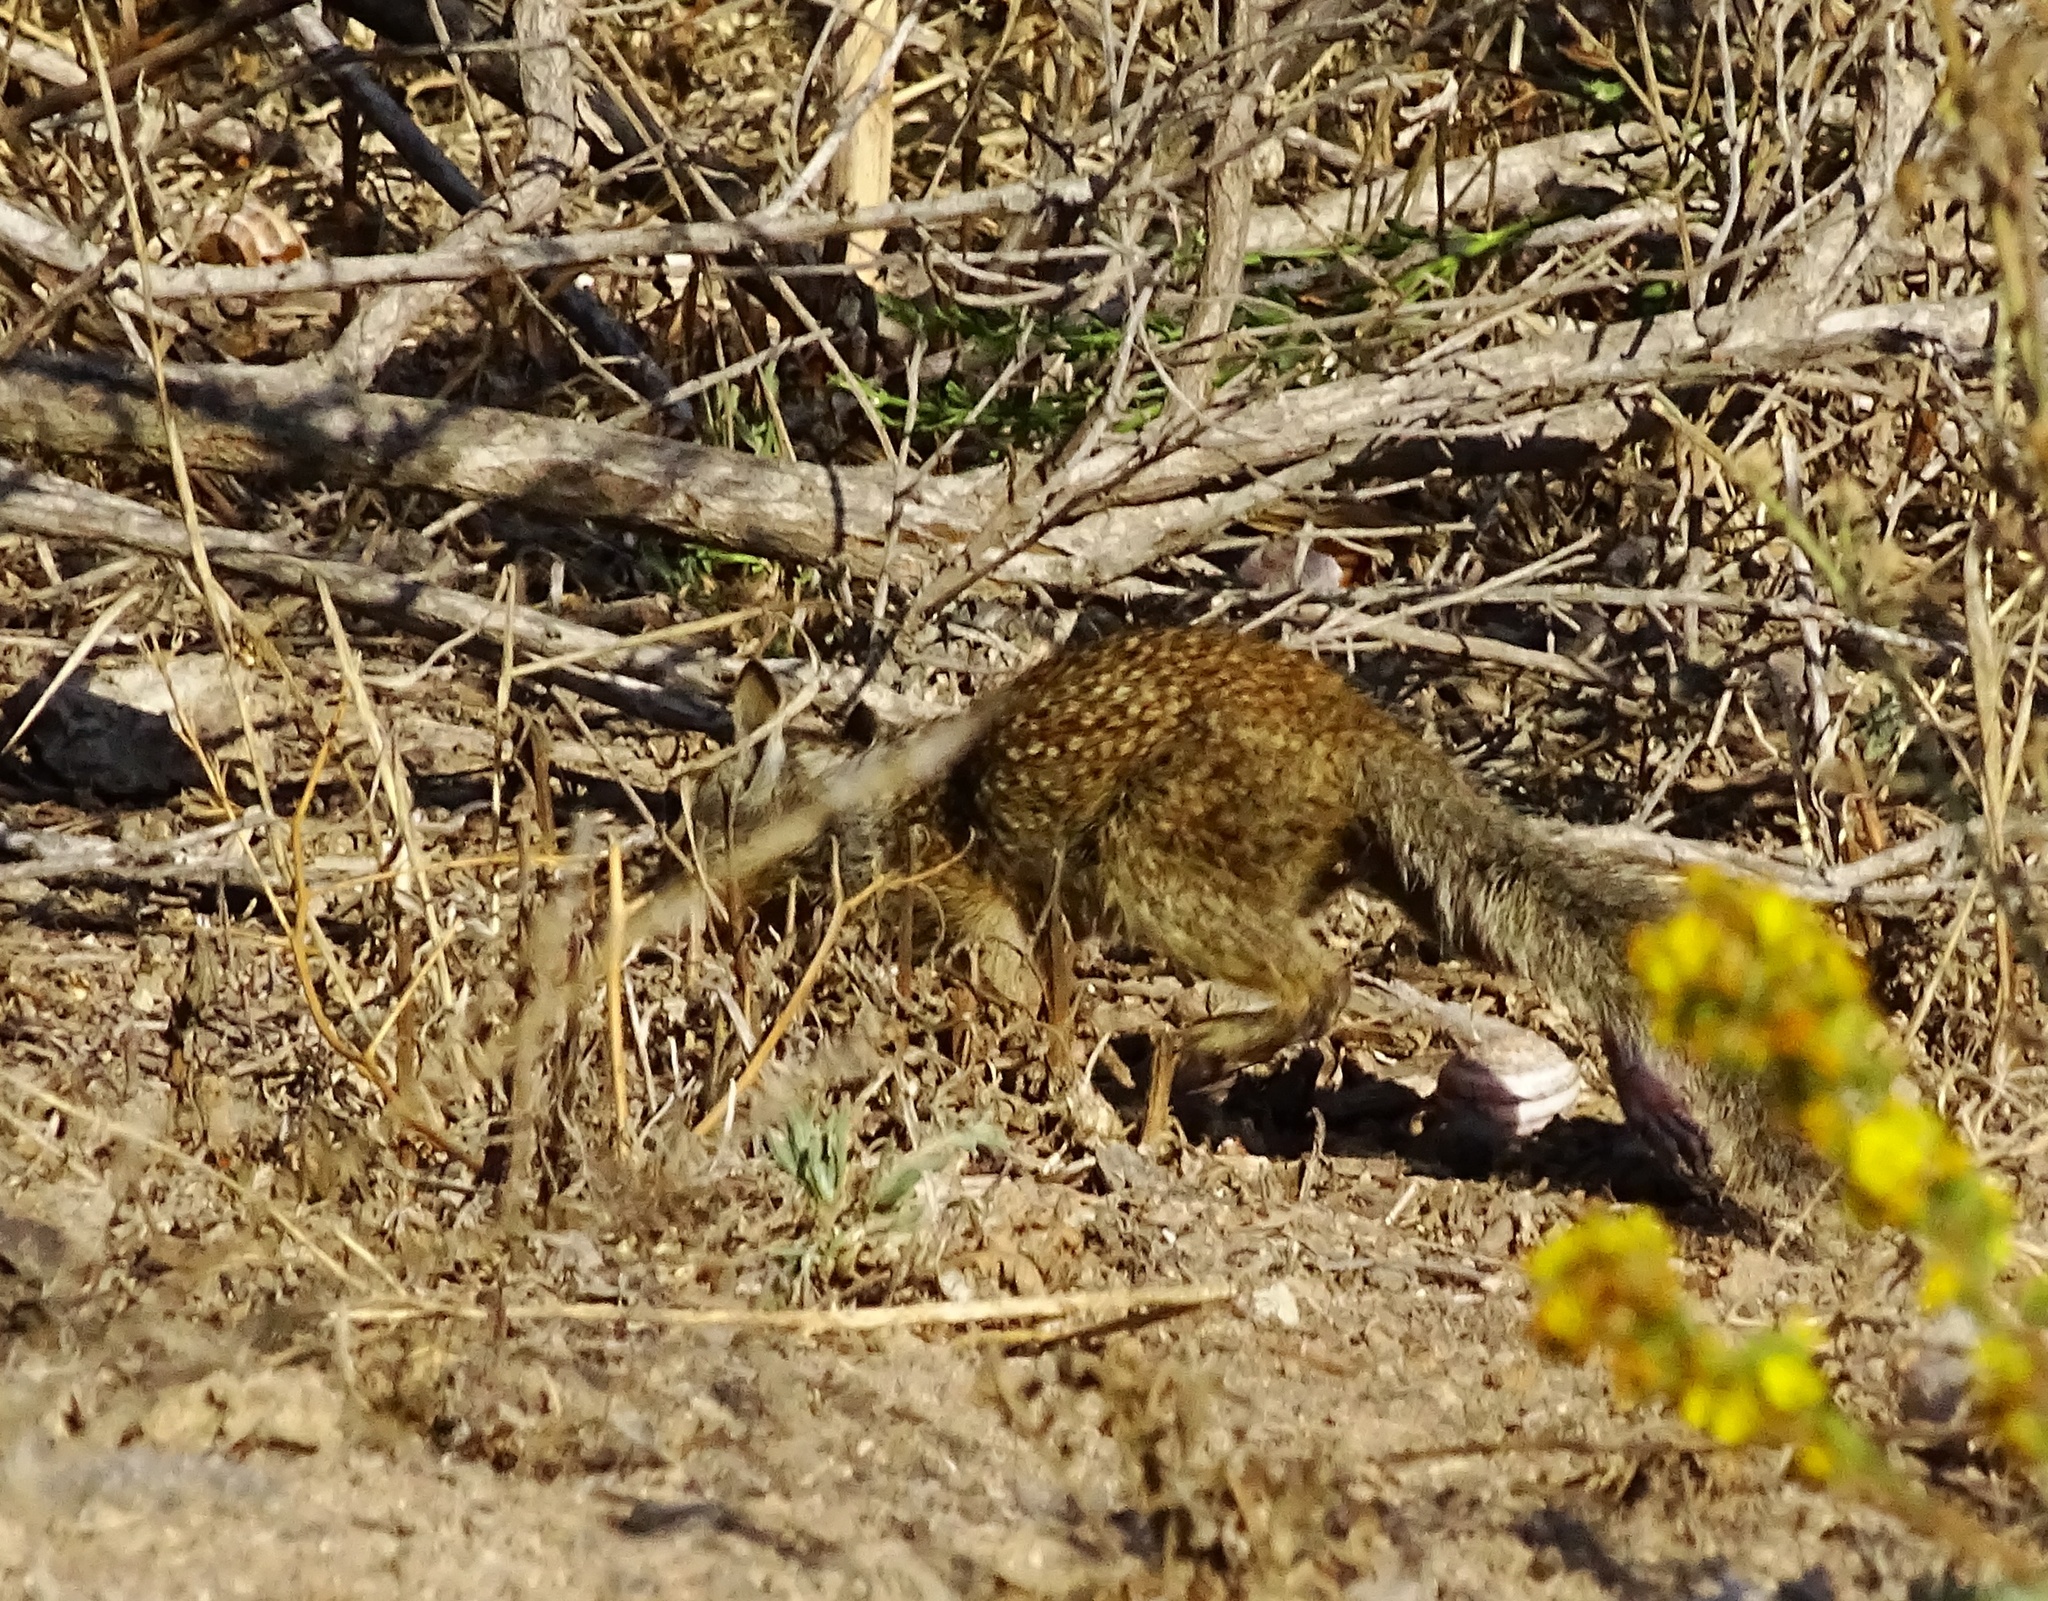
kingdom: Animalia
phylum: Chordata
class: Mammalia
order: Rodentia
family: Sciuridae
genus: Otospermophilus
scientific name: Otospermophilus beecheyi
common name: California ground squirrel
